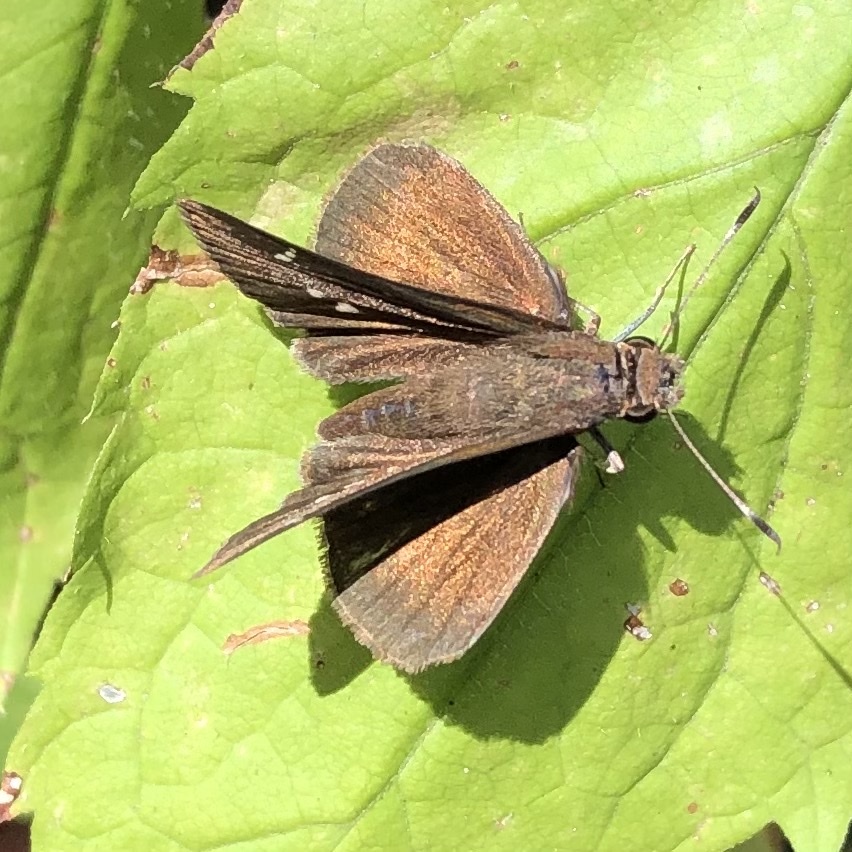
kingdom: Animalia
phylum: Arthropoda
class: Insecta
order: Lepidoptera
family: Hesperiidae
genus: Lerema
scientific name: Lerema accius
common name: Clouded skipper
